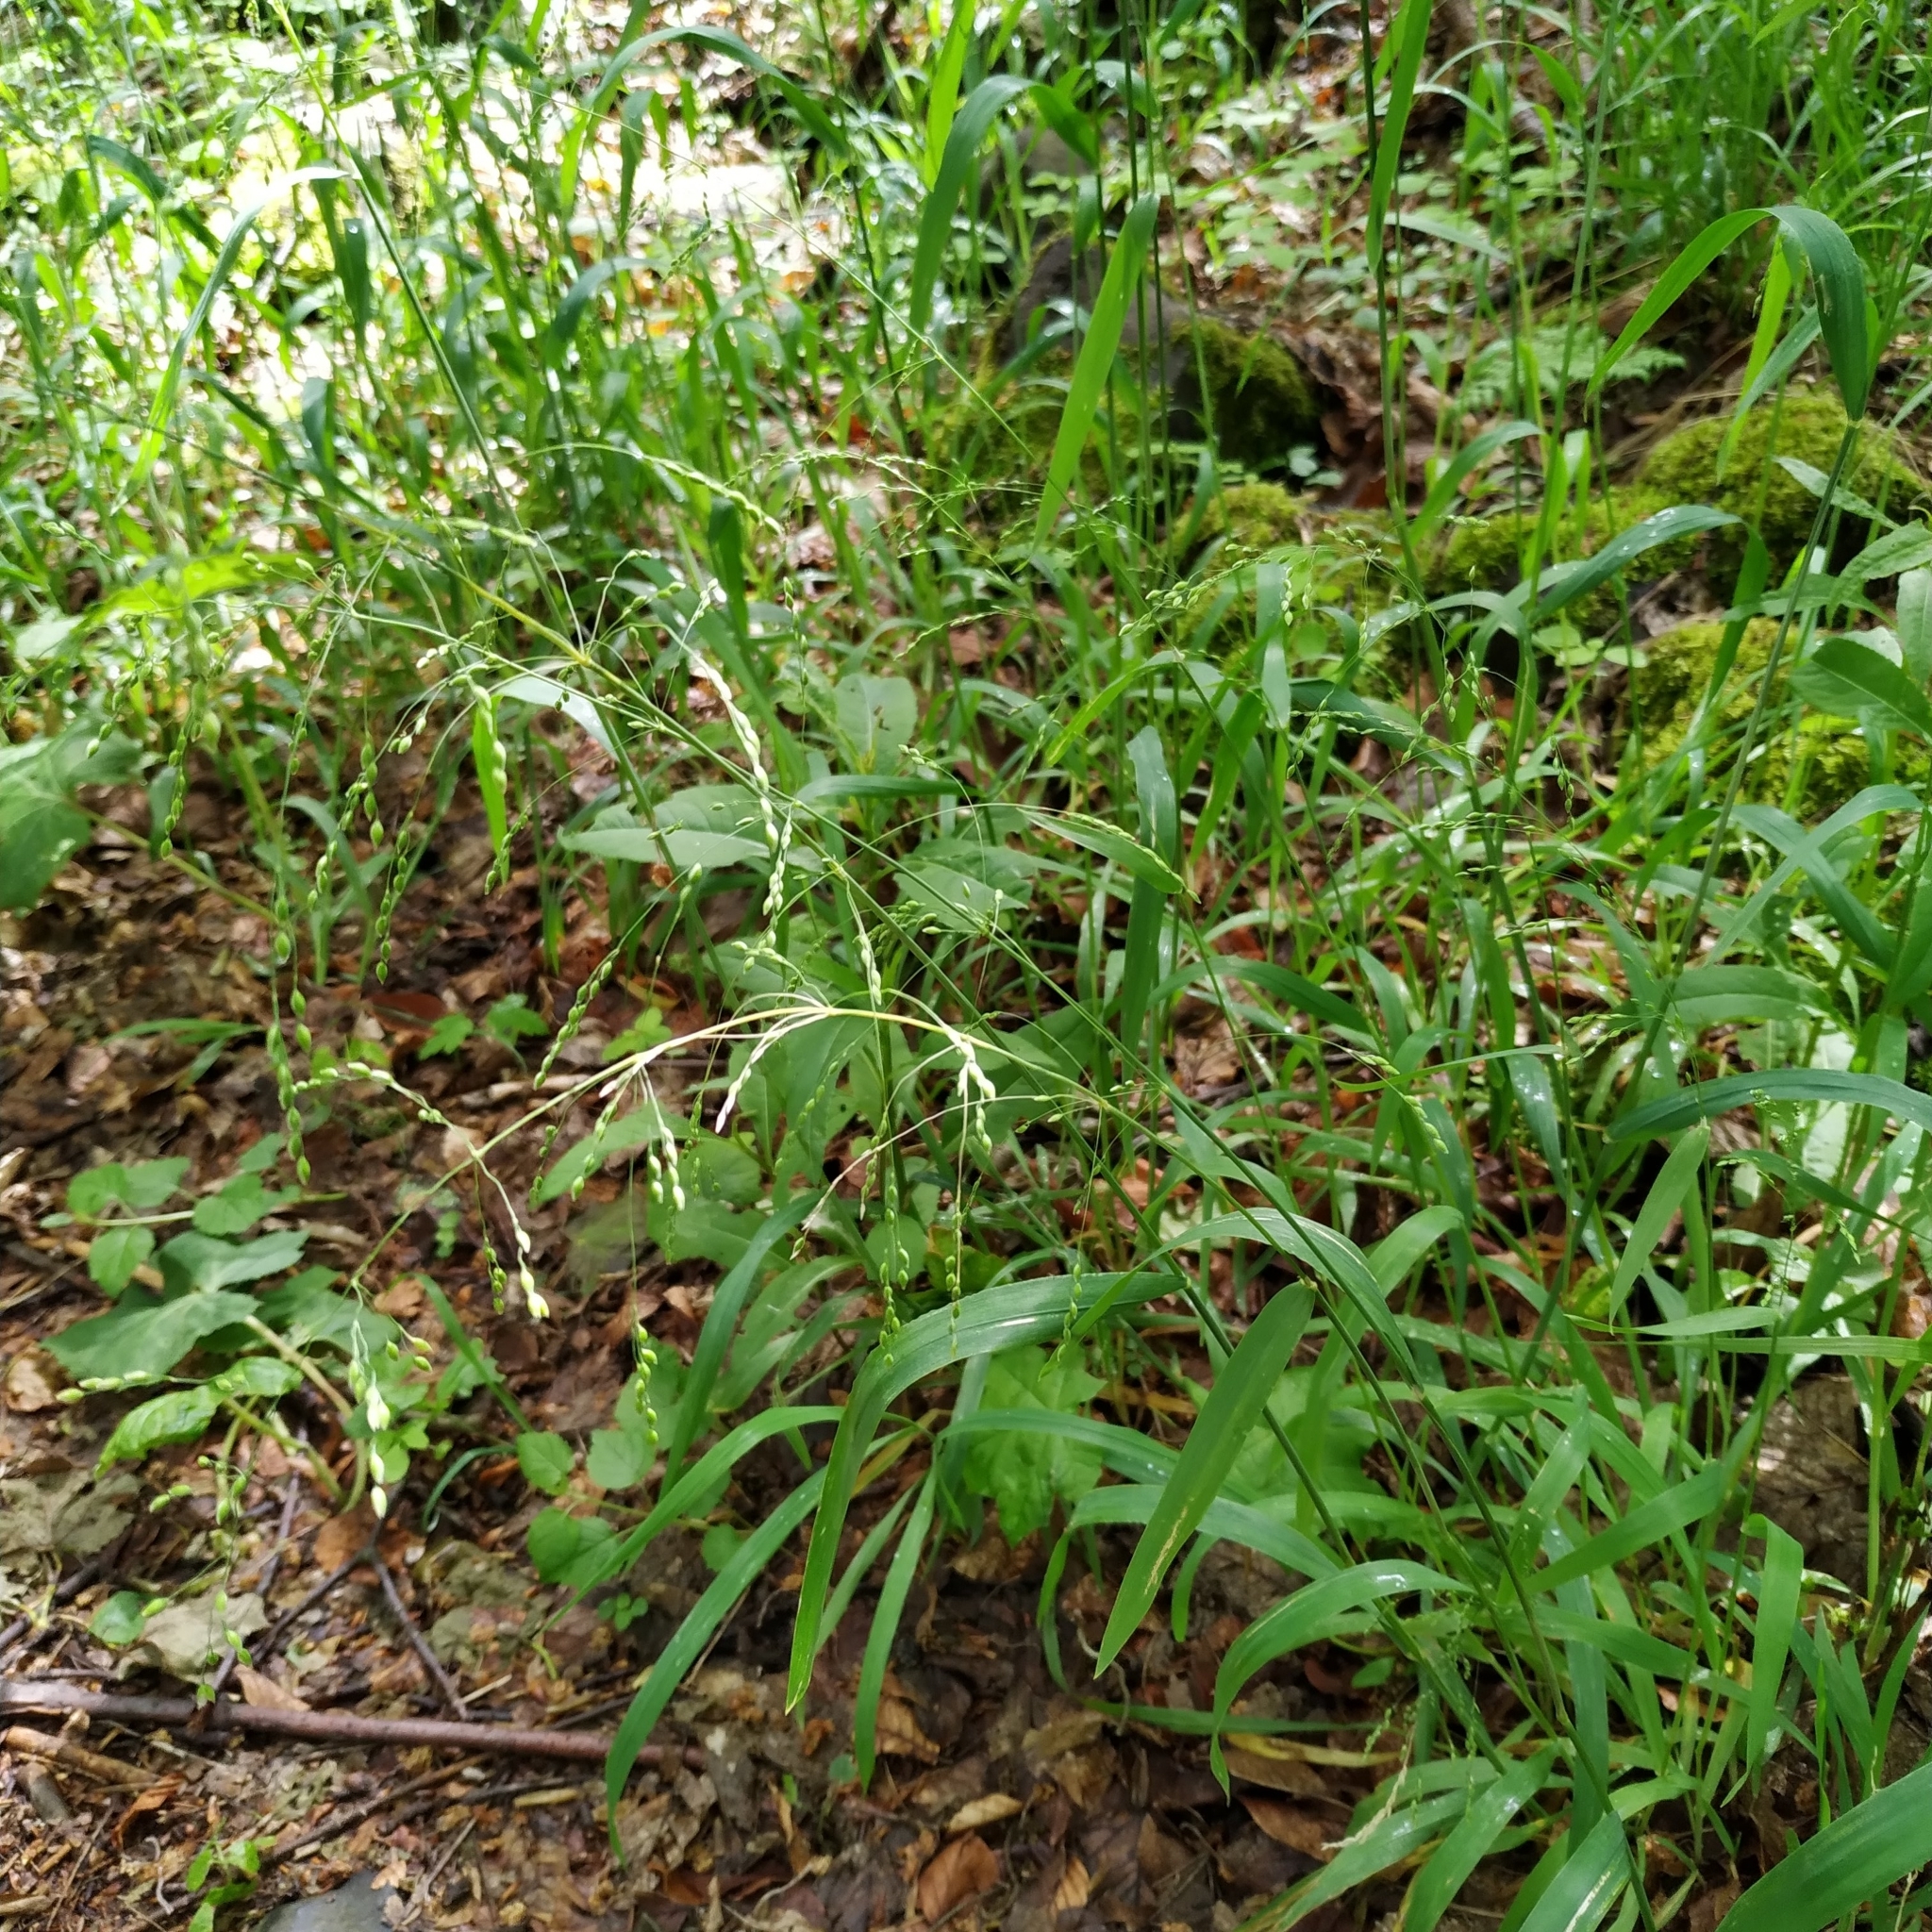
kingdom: Plantae
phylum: Tracheophyta
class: Liliopsida
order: Poales
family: Poaceae
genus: Milium
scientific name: Milium effusum
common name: Wood millet
